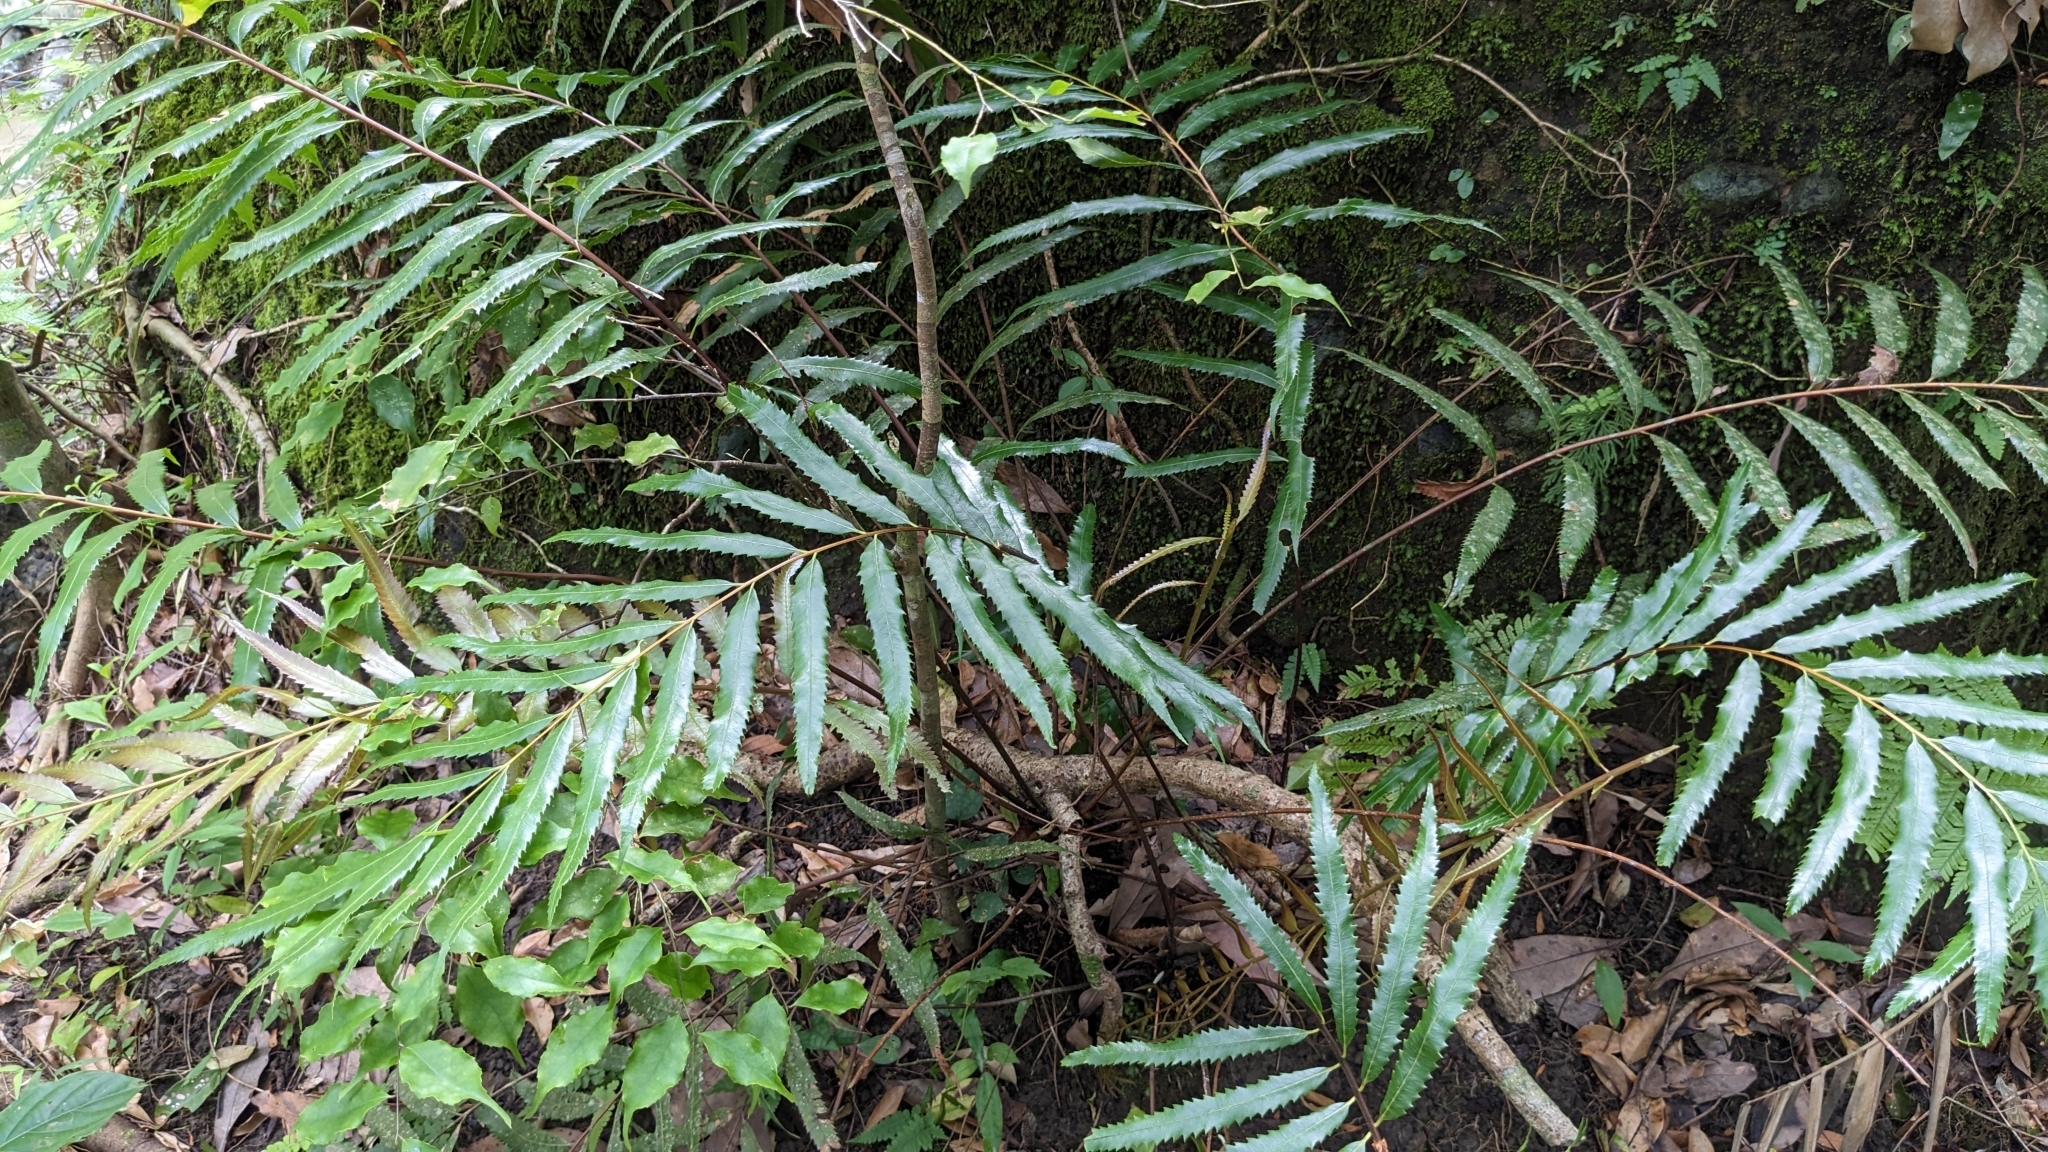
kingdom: Plantae
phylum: Tracheophyta
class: Polypodiopsida
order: Osmundales
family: Osmundaceae
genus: Plenasium
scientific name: Plenasium banksiifolium
